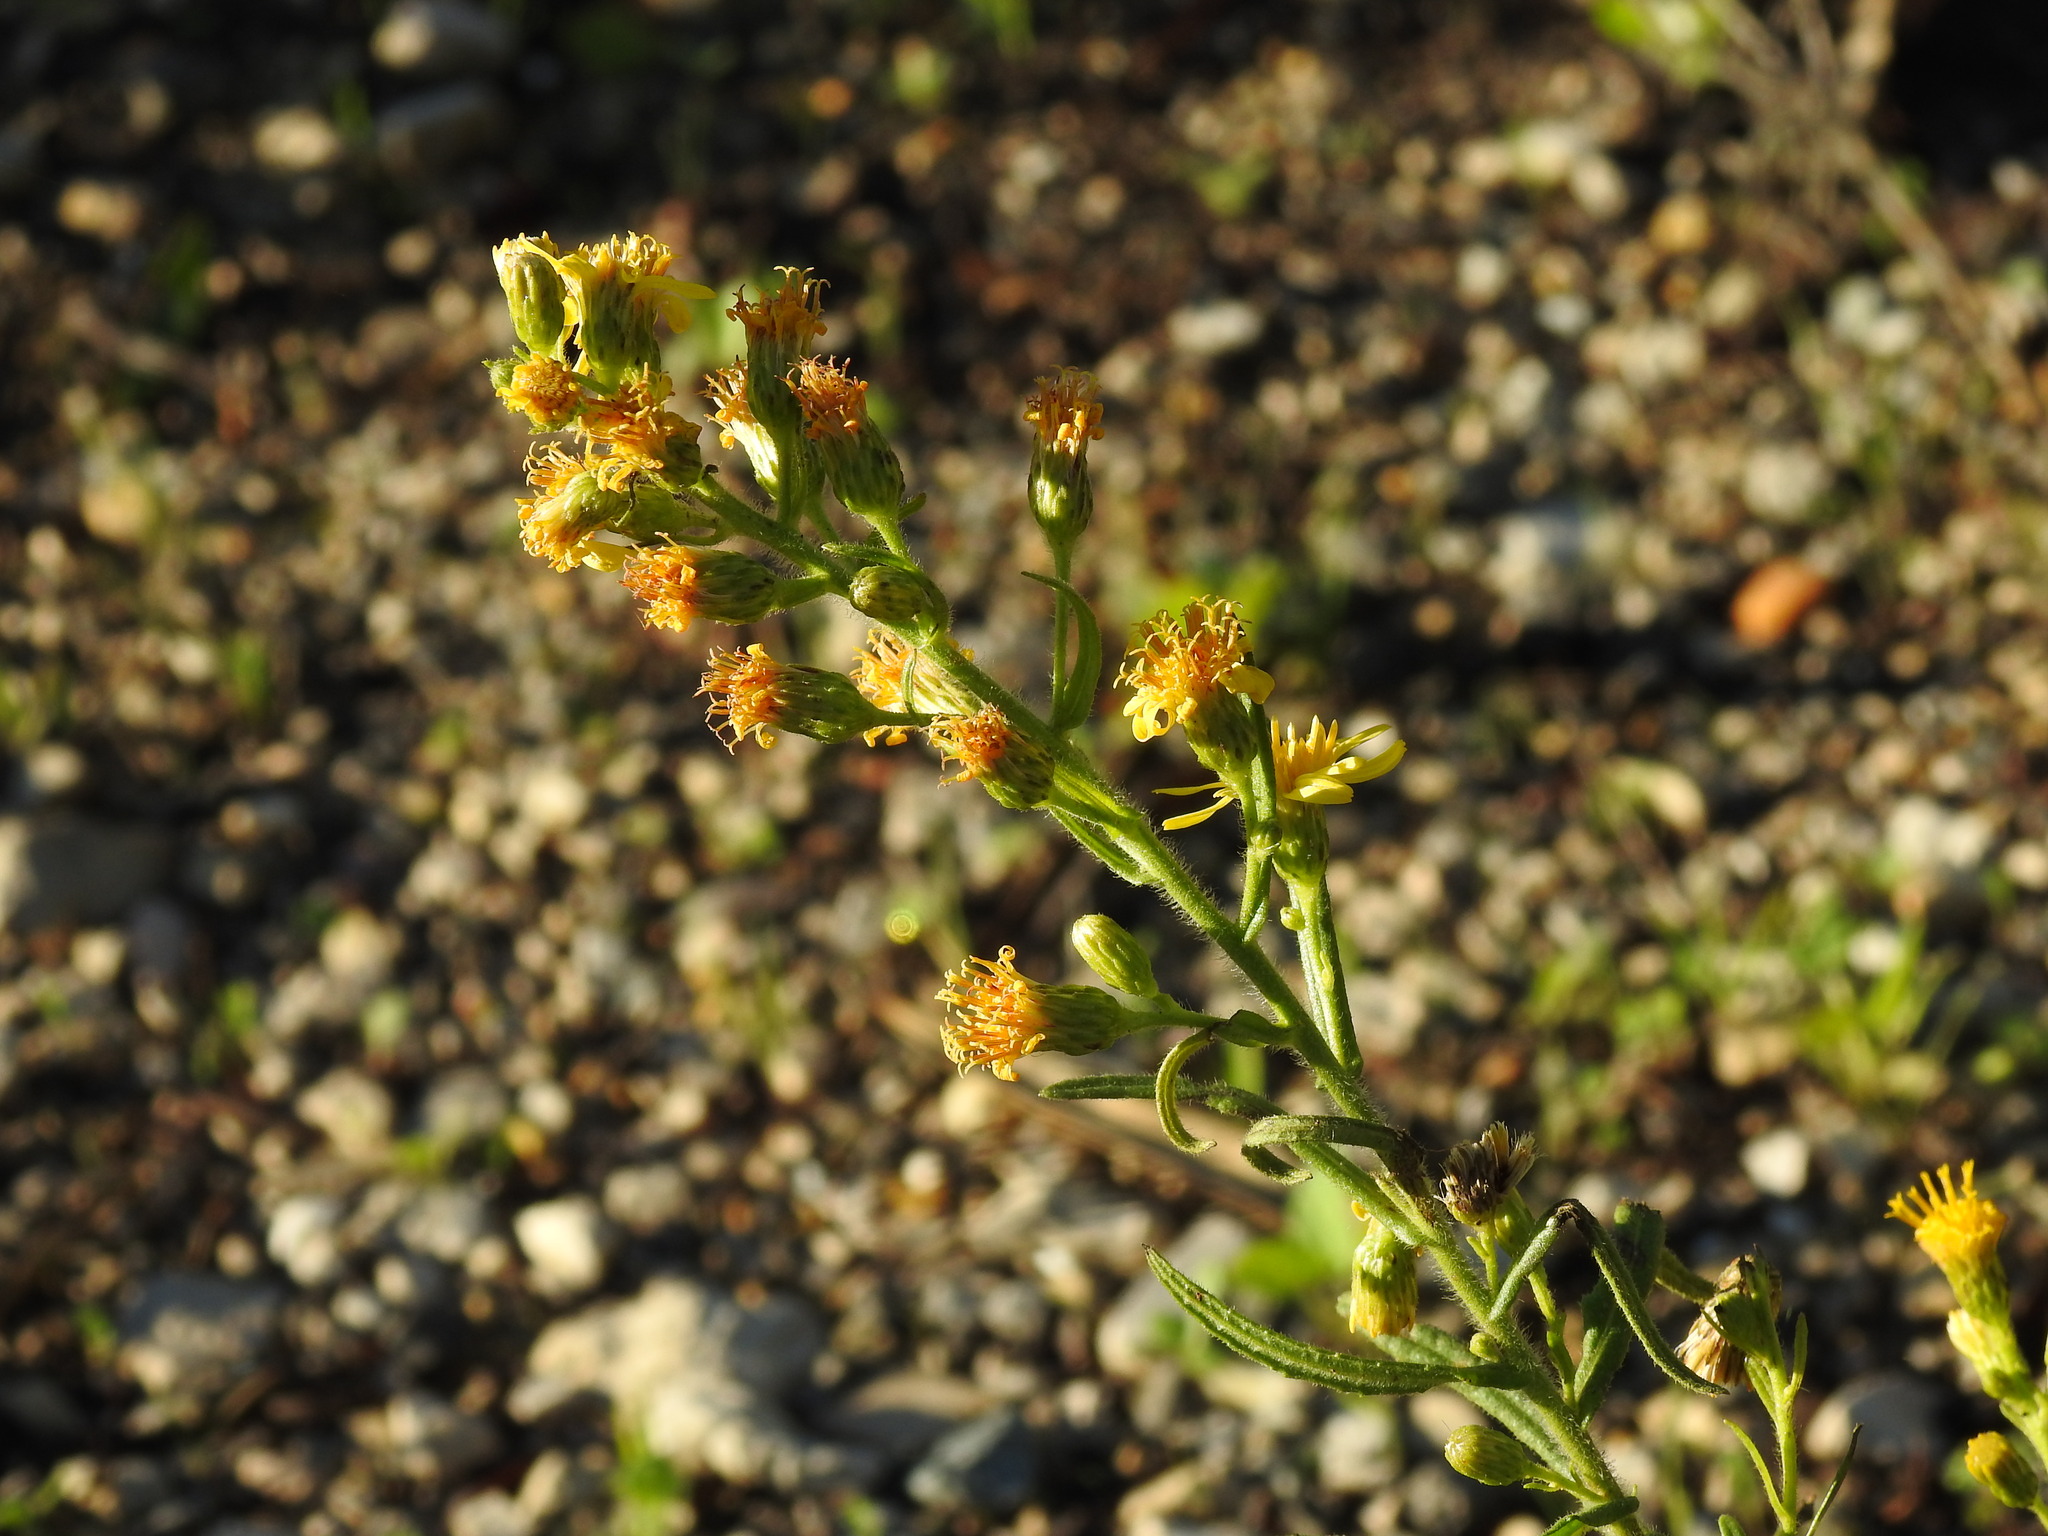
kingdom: Plantae
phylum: Tracheophyta
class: Magnoliopsida
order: Asterales
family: Asteraceae
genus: Dittrichia
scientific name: Dittrichia viscosa
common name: Woody fleabane
